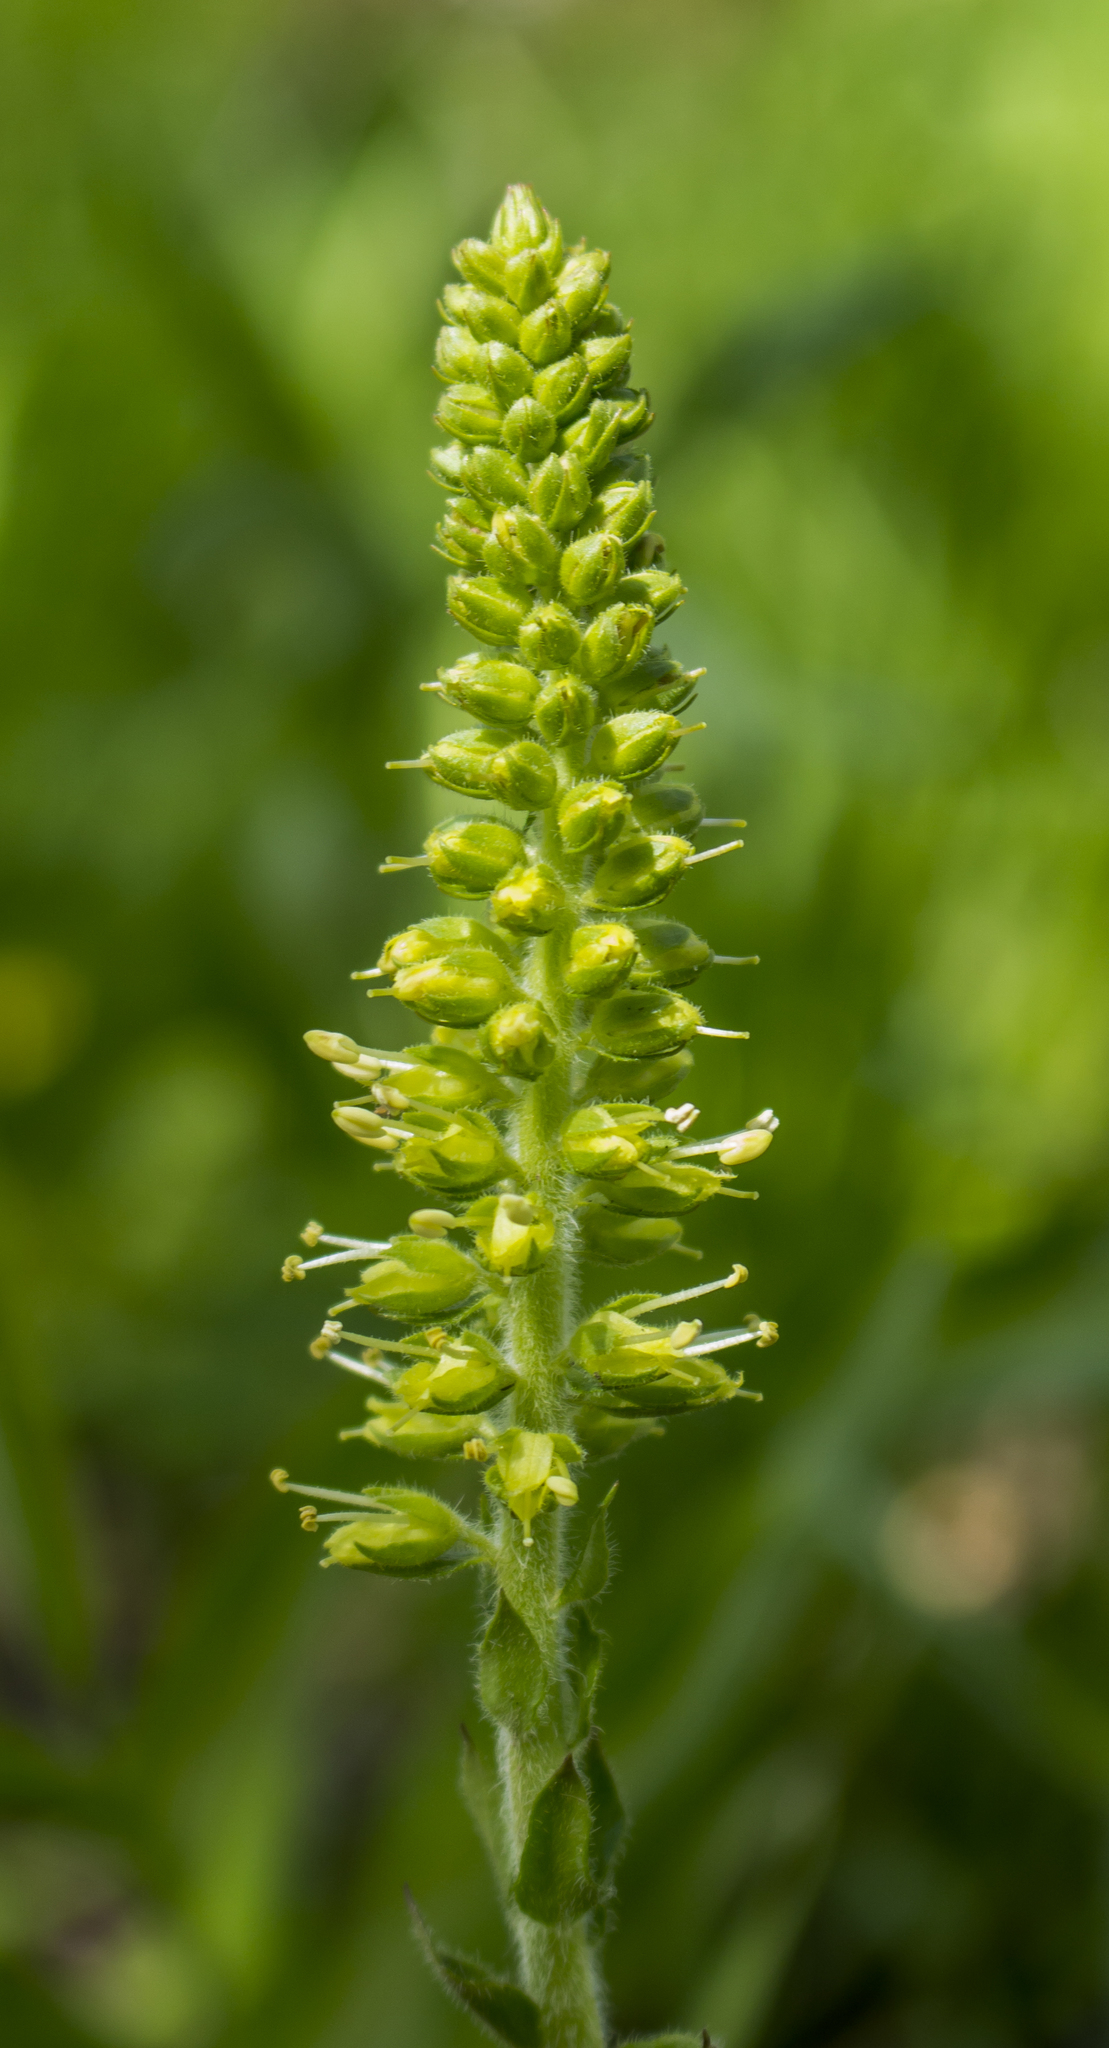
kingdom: Plantae
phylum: Tracheophyta
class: Magnoliopsida
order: Lamiales
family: Plantaginaceae
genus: Synthyris
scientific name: Synthyris bullii
